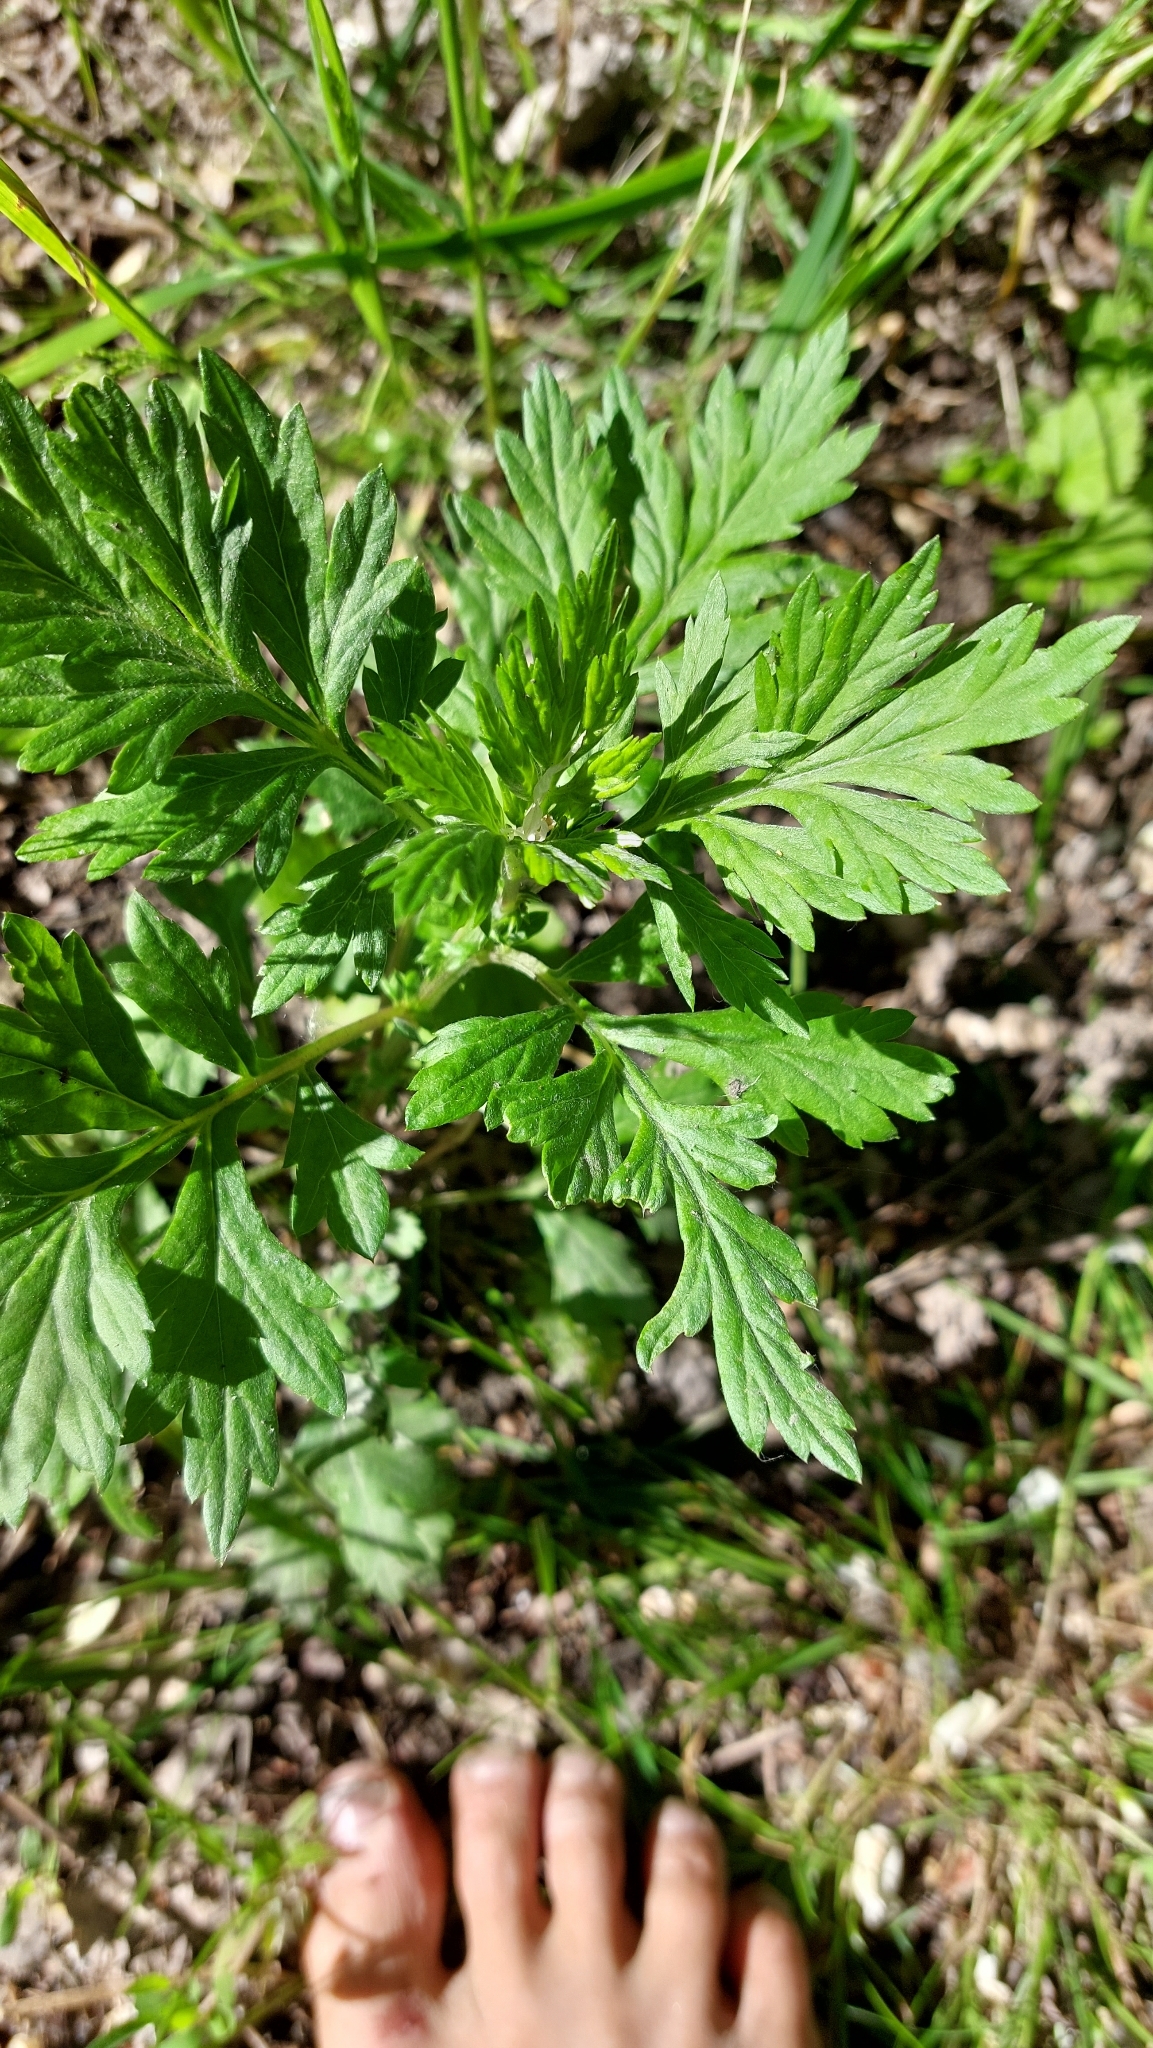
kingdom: Plantae
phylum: Tracheophyta
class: Magnoliopsida
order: Asterales
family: Asteraceae
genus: Artemisia
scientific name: Artemisia vulgaris
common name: Mugwort
